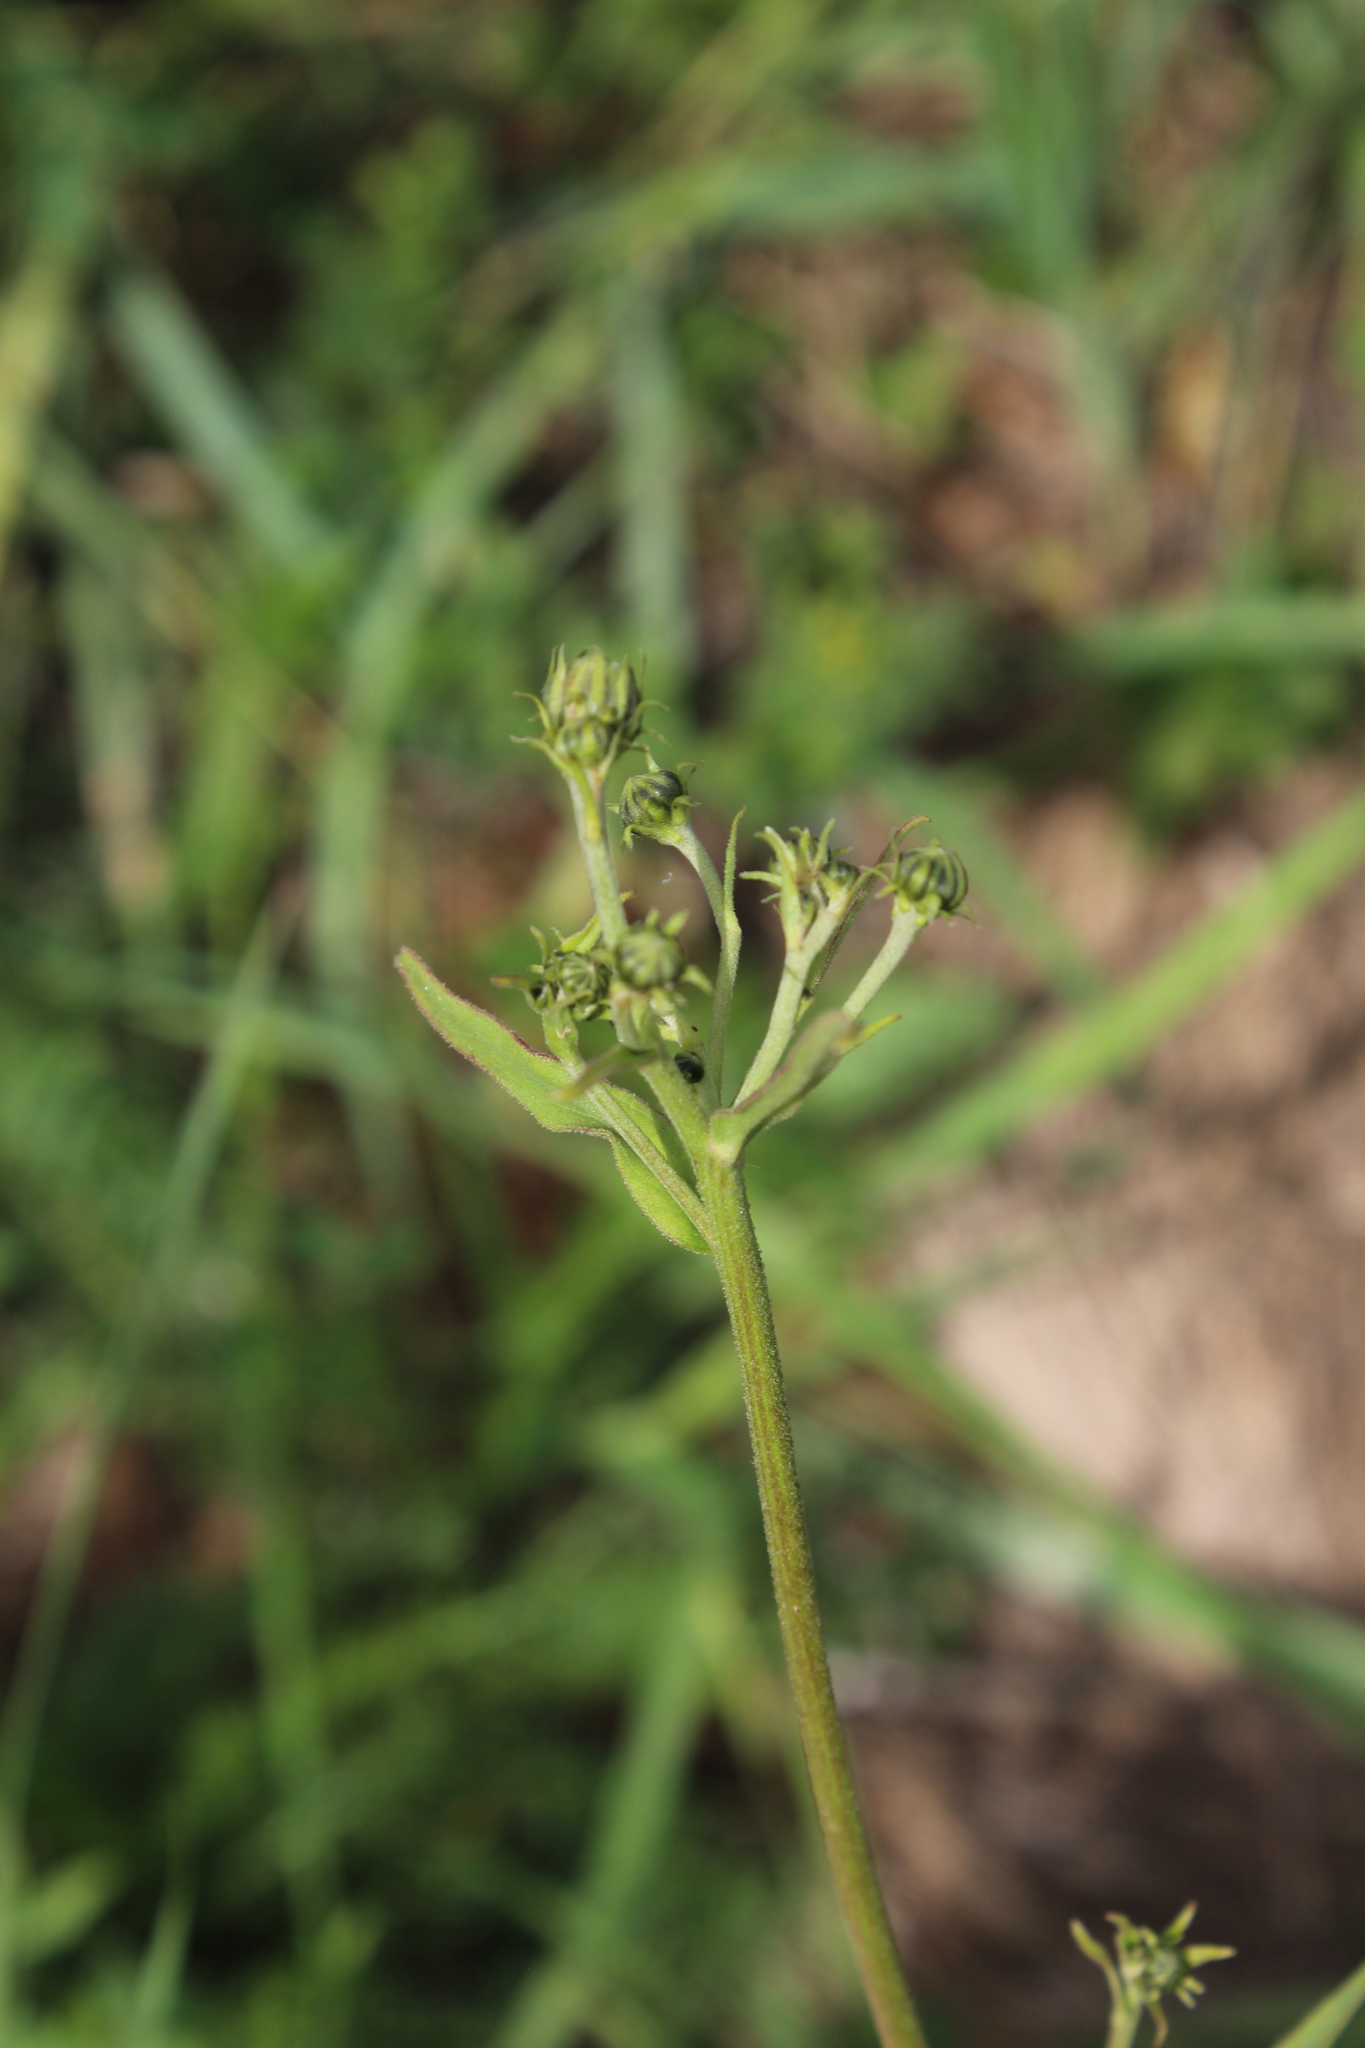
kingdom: Plantae
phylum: Tracheophyta
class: Magnoliopsida
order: Asterales
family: Asteraceae
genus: Hieracium
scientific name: Hieracium umbellatum
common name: Northern hawkweed
